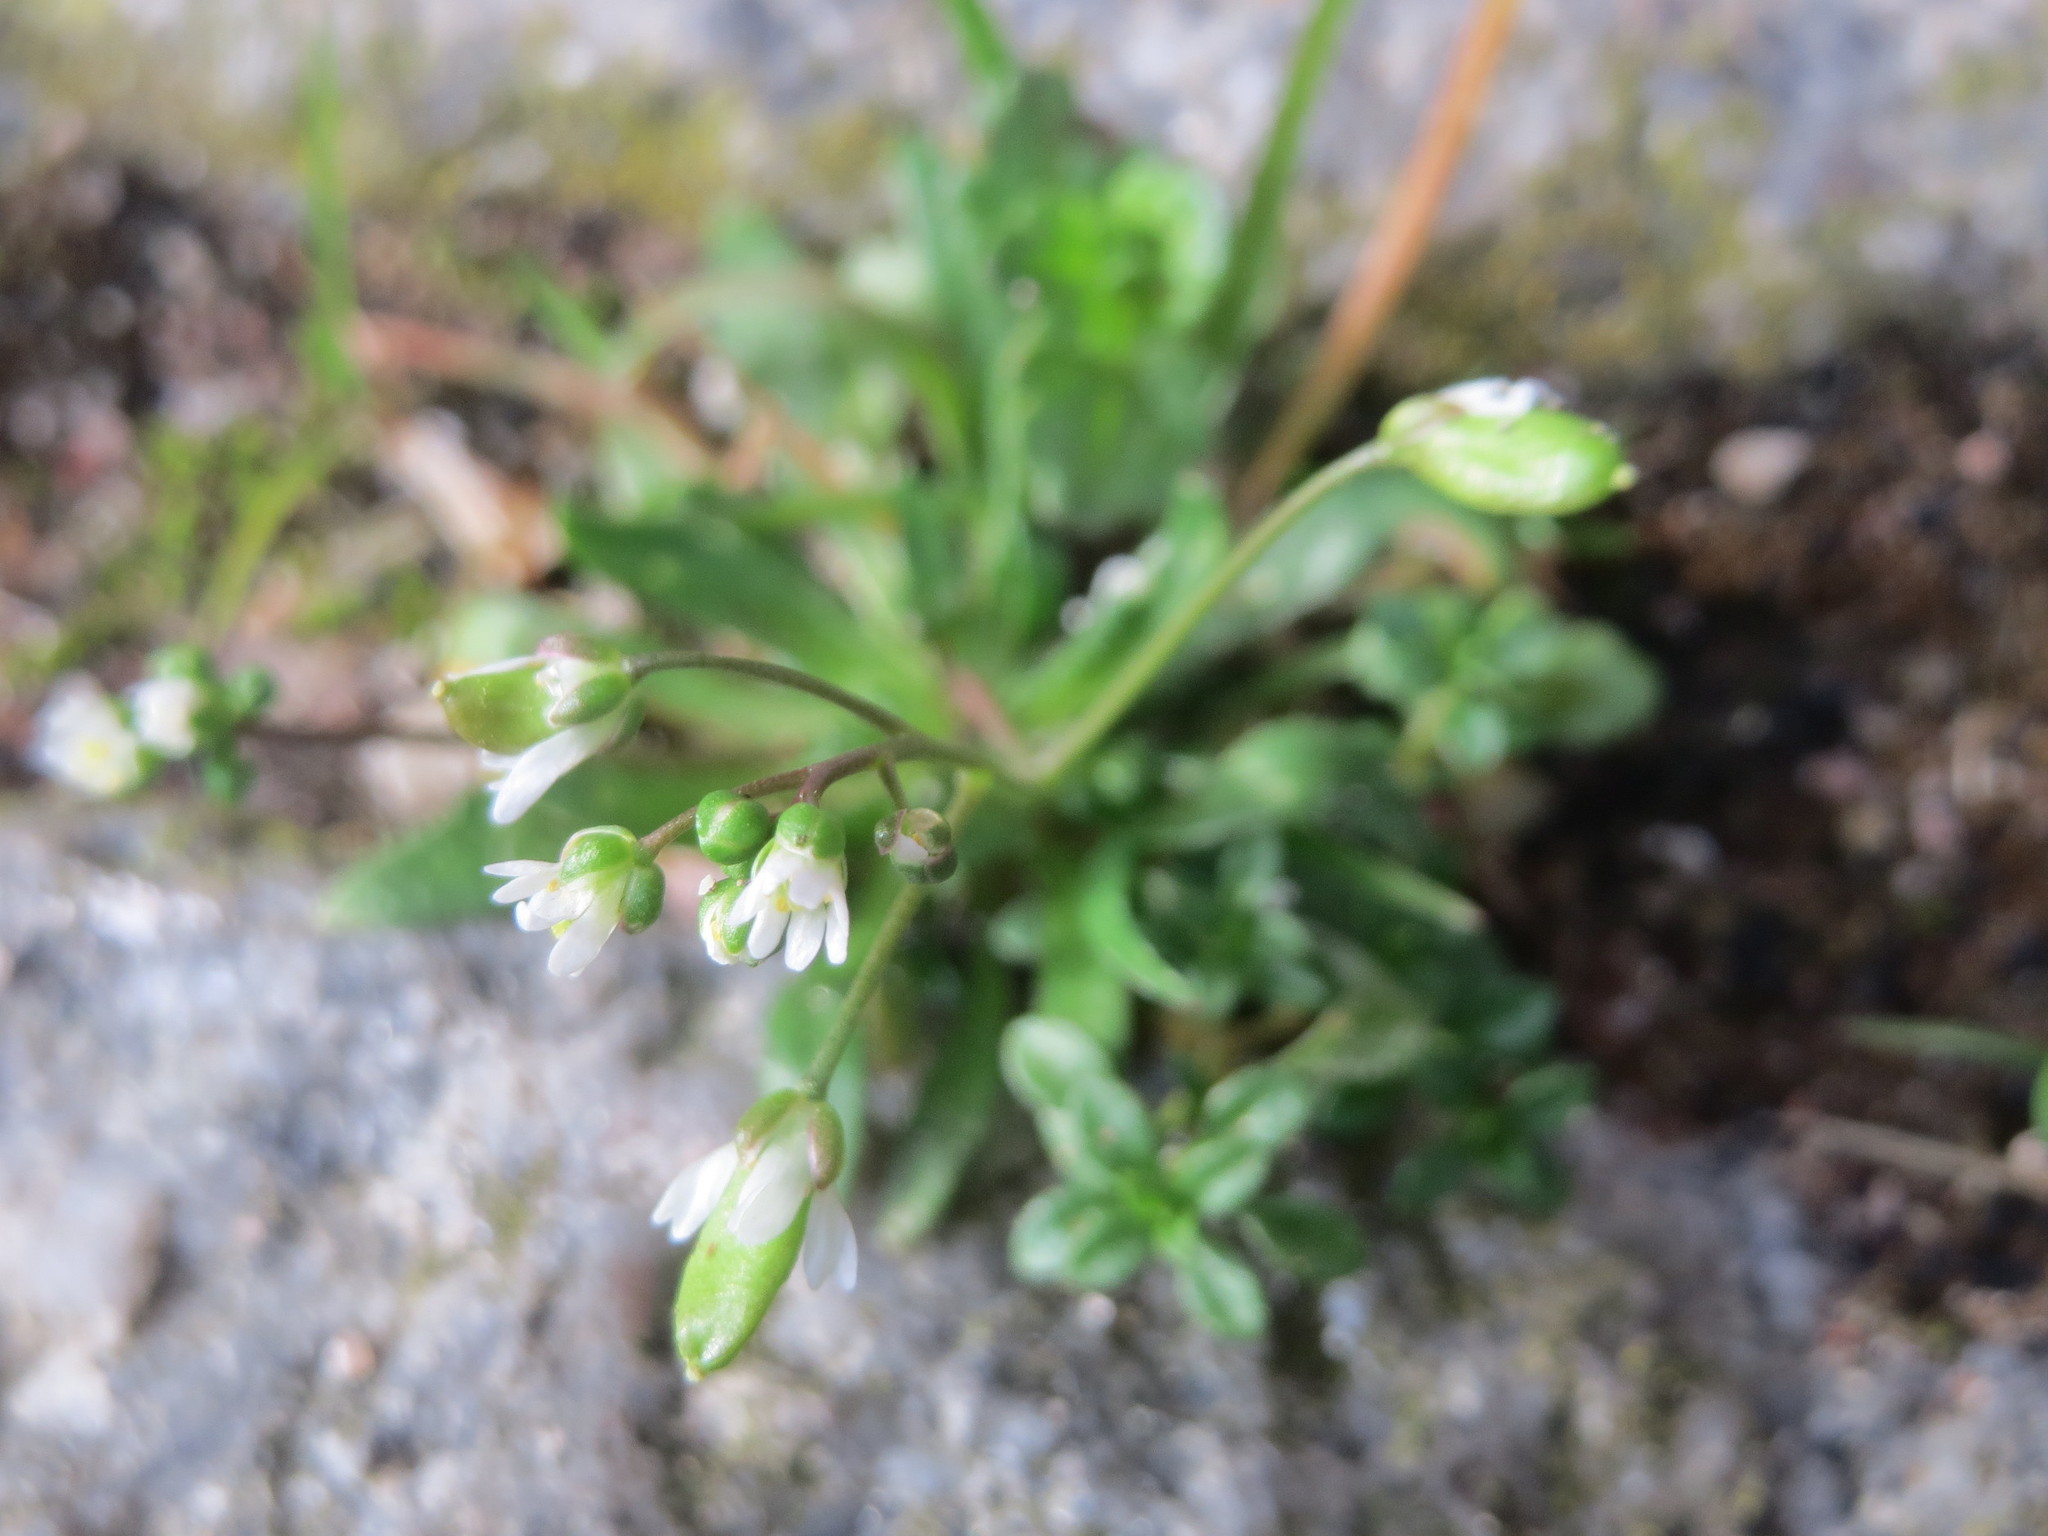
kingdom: Plantae
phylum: Tracheophyta
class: Magnoliopsida
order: Brassicales
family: Brassicaceae
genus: Draba
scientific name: Draba verna
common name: Spring draba
